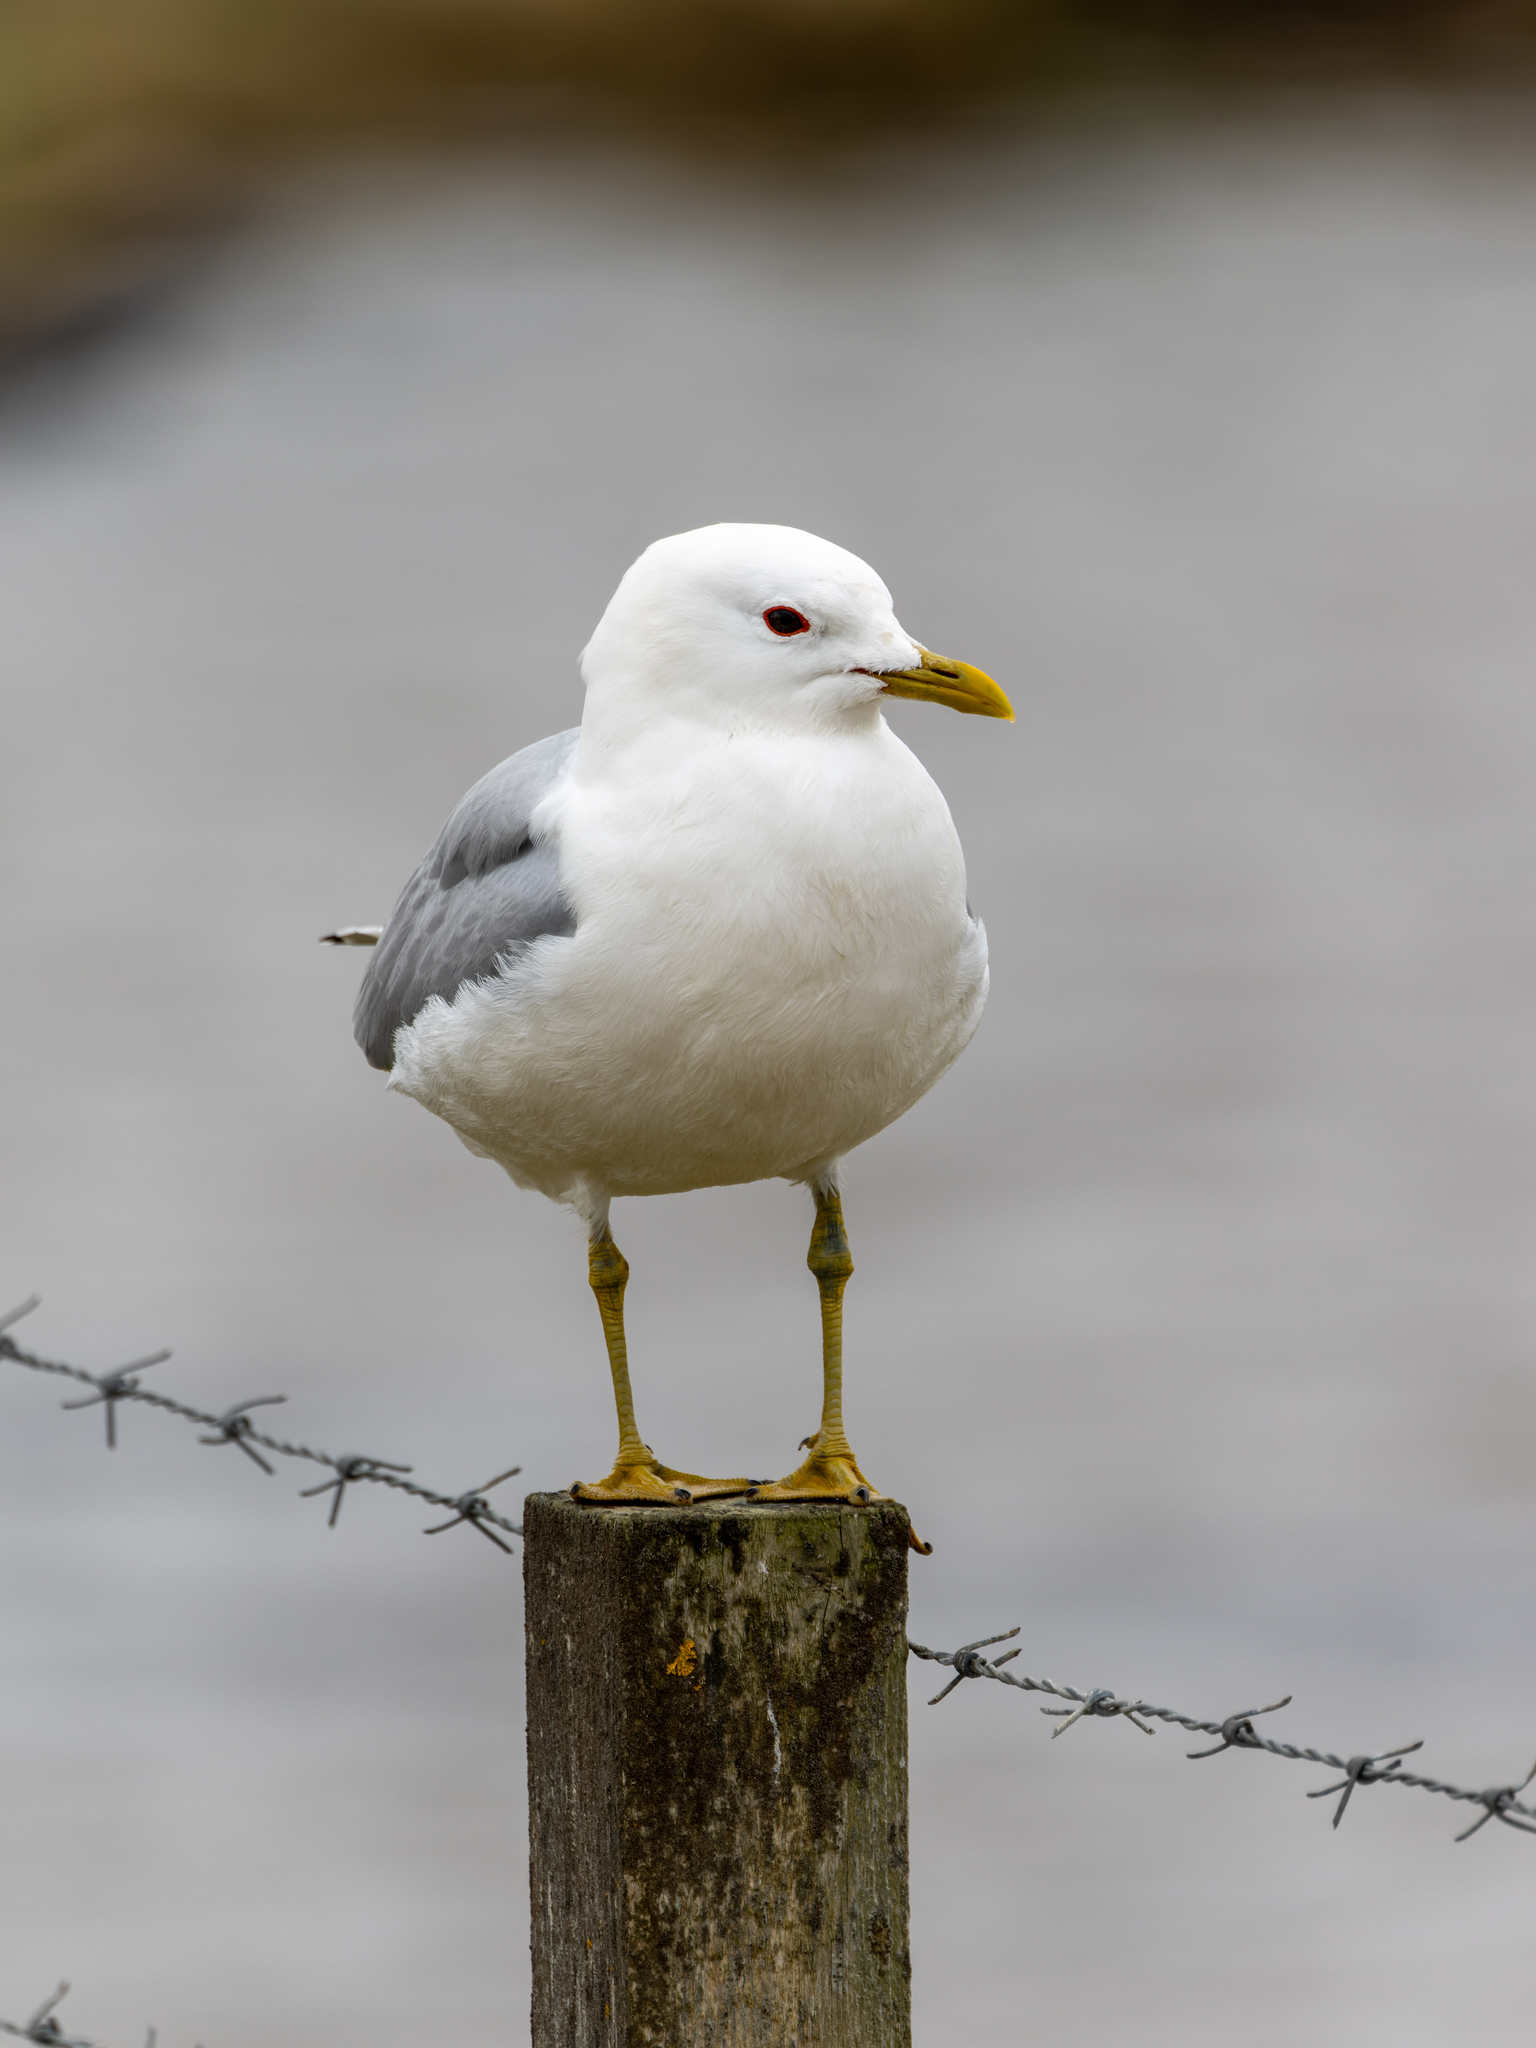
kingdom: Animalia
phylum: Chordata
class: Aves
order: Charadriiformes
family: Laridae
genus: Larus
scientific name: Larus canus
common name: Mew gull
